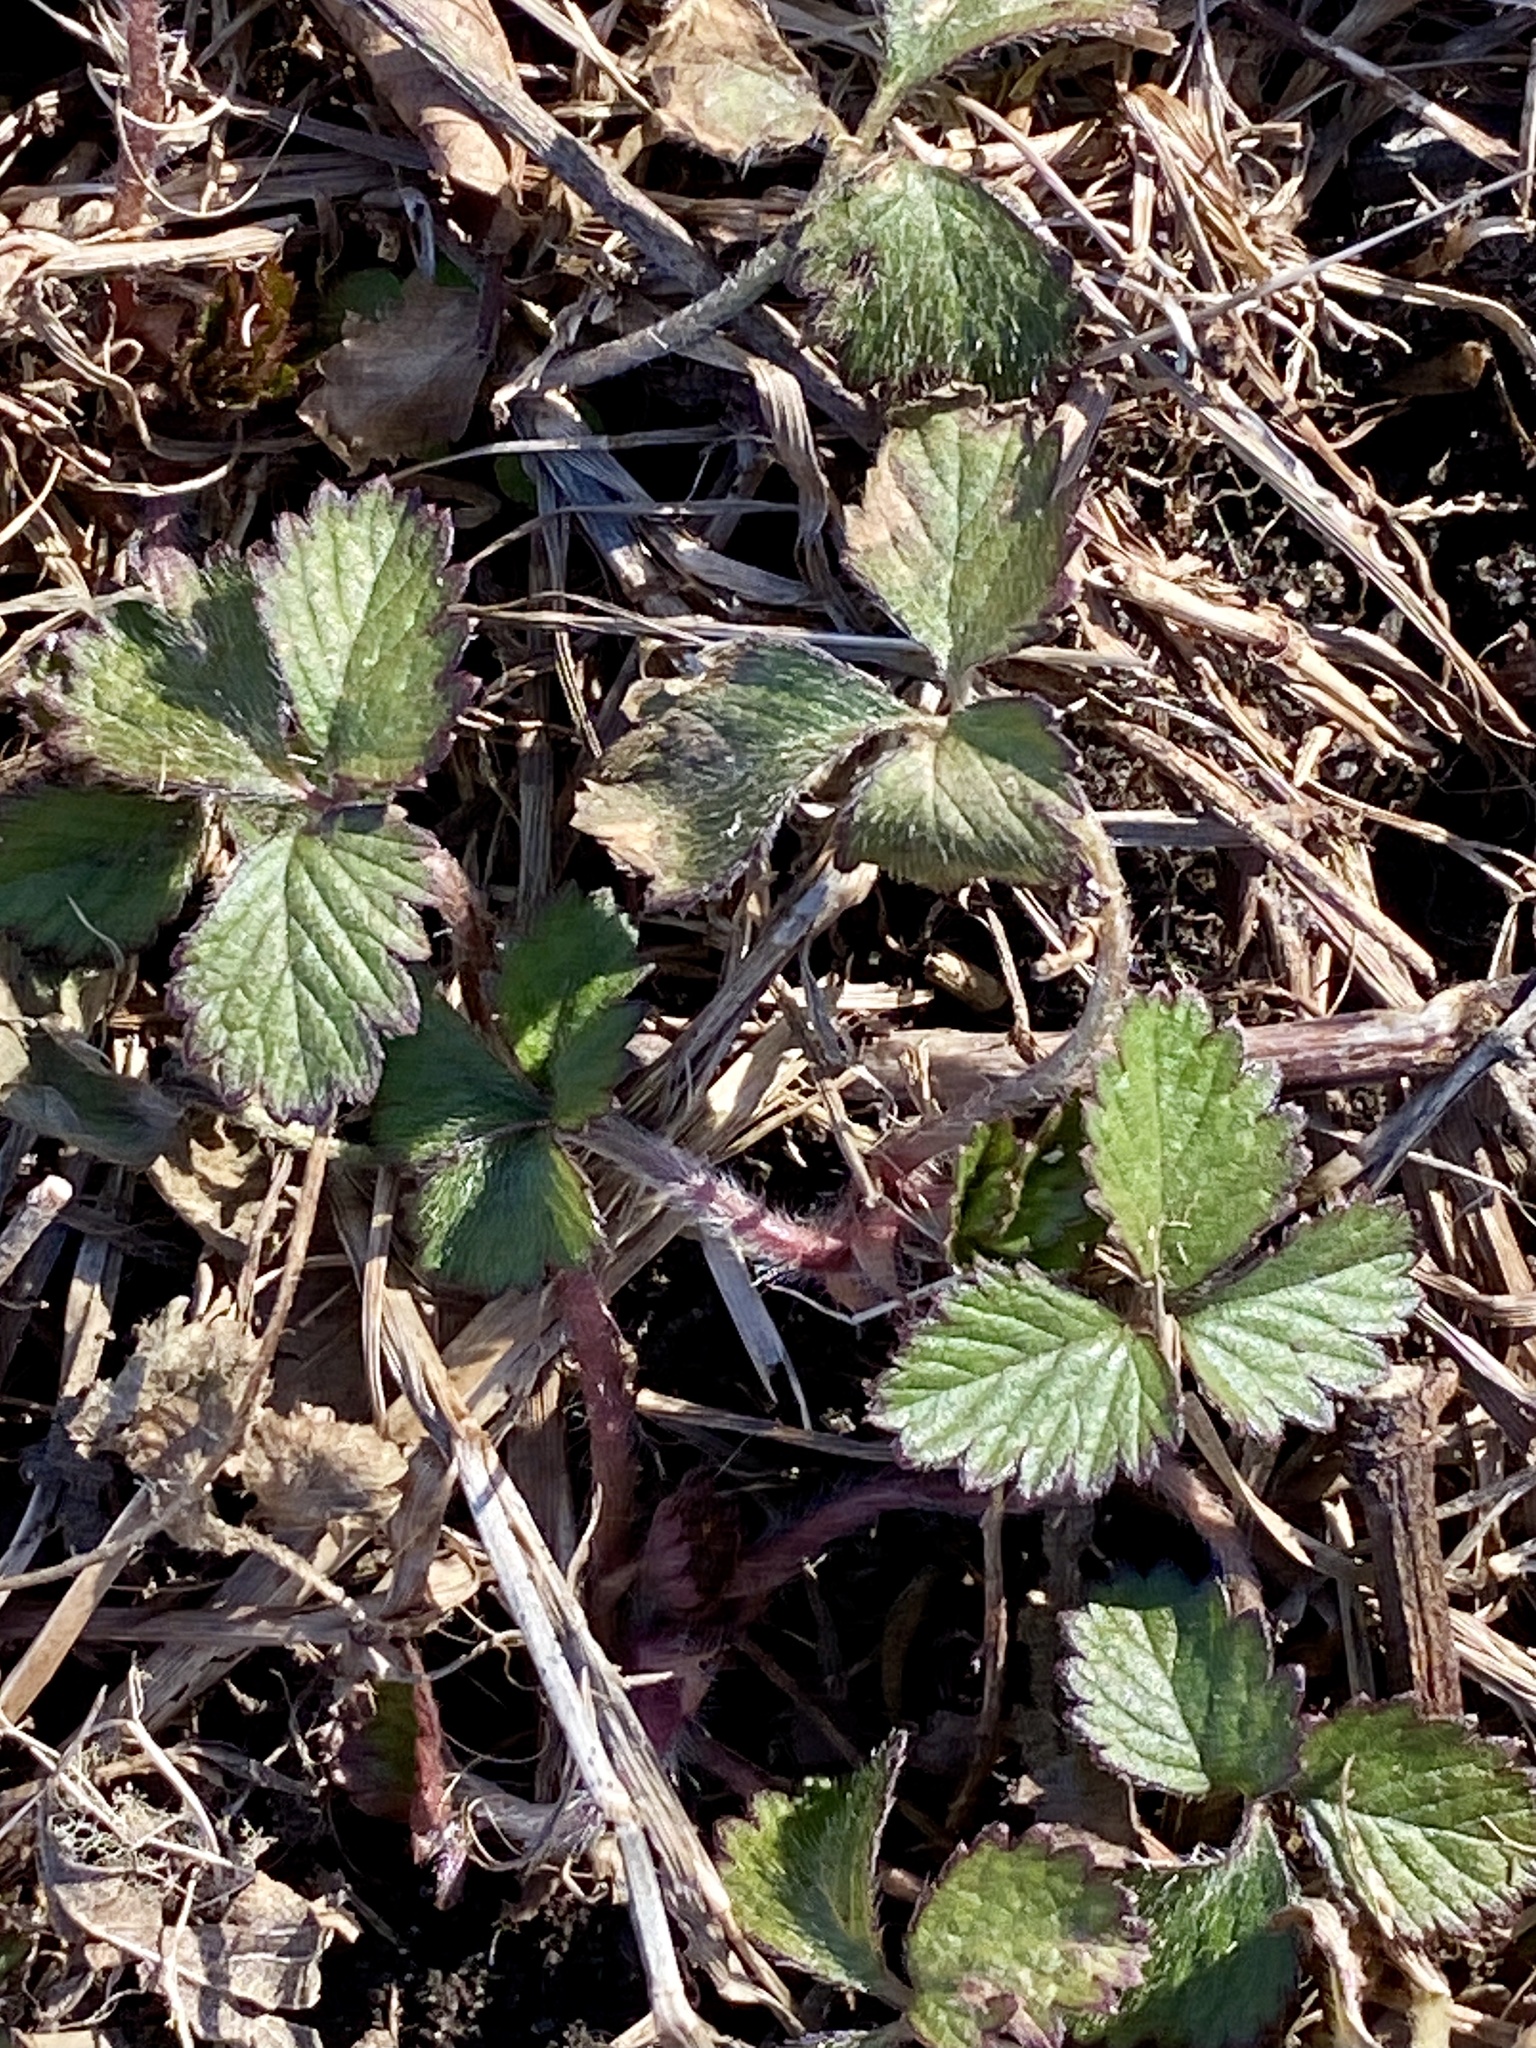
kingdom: Plantae
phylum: Tracheophyta
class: Magnoliopsida
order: Rosales
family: Rosaceae
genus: Potentilla
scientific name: Potentilla indica
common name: Yellow-flowered strawberry
